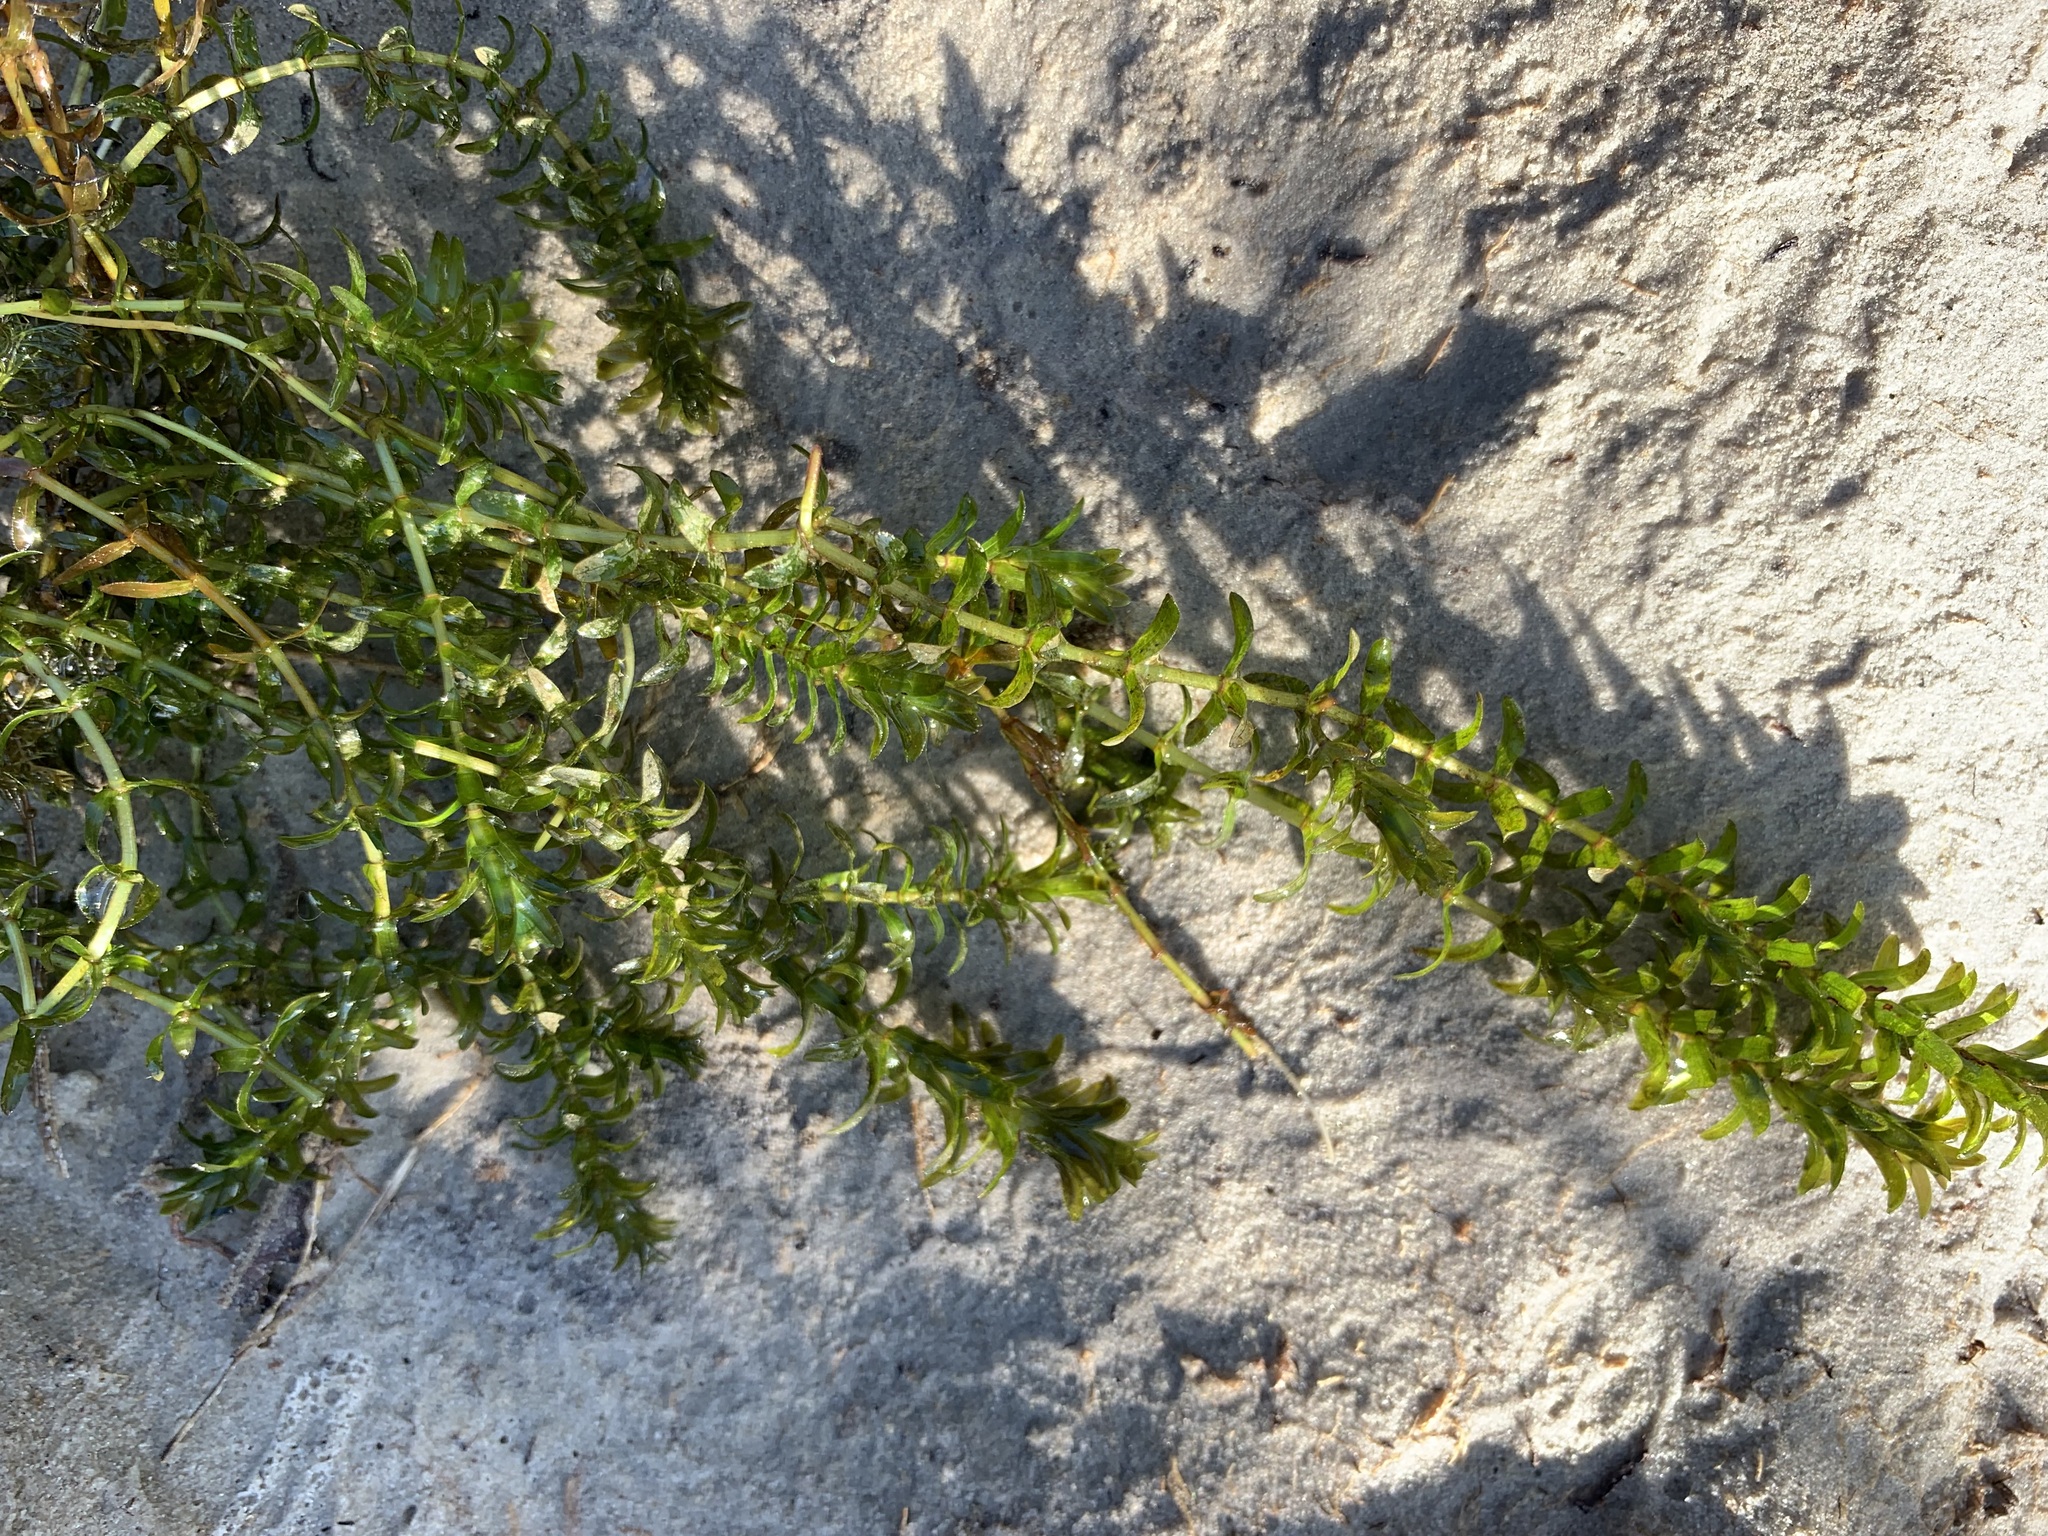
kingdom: Plantae
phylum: Tracheophyta
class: Liliopsida
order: Alismatales
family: Hydrocharitaceae
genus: Elodea
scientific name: Elodea canadensis
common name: Canadian waterweed
